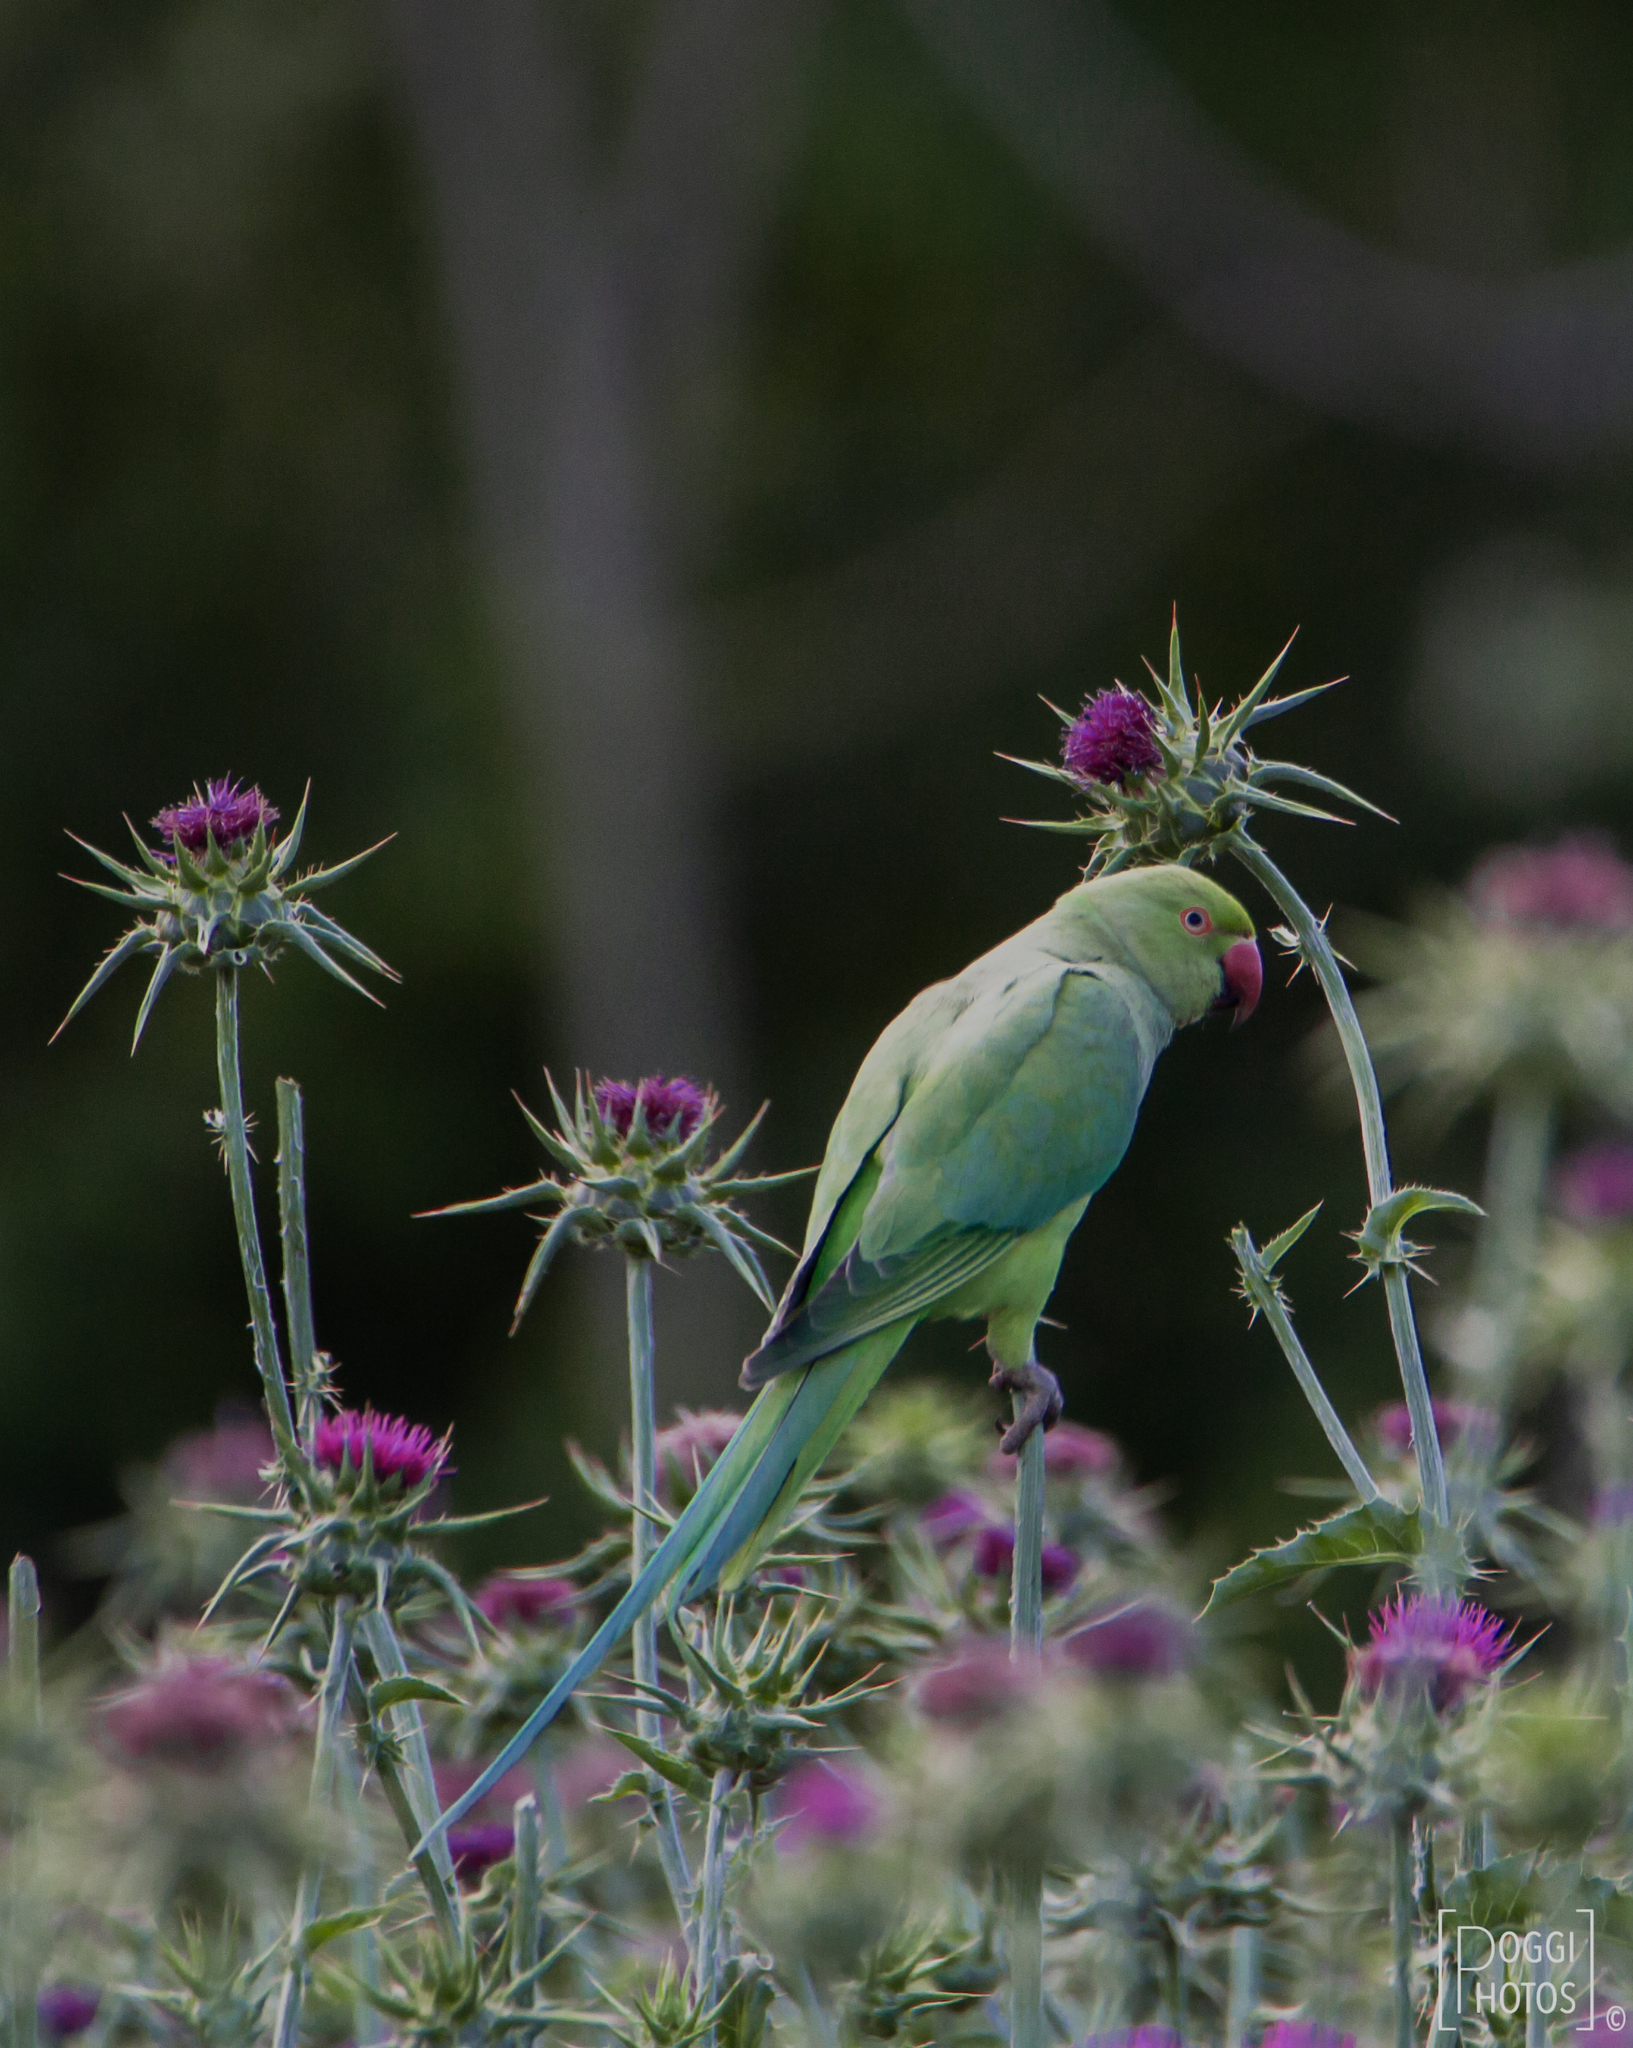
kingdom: Animalia
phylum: Chordata
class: Aves
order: Psittaciformes
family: Psittacidae
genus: Psittacula
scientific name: Psittacula krameri
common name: Rose-ringed parakeet
